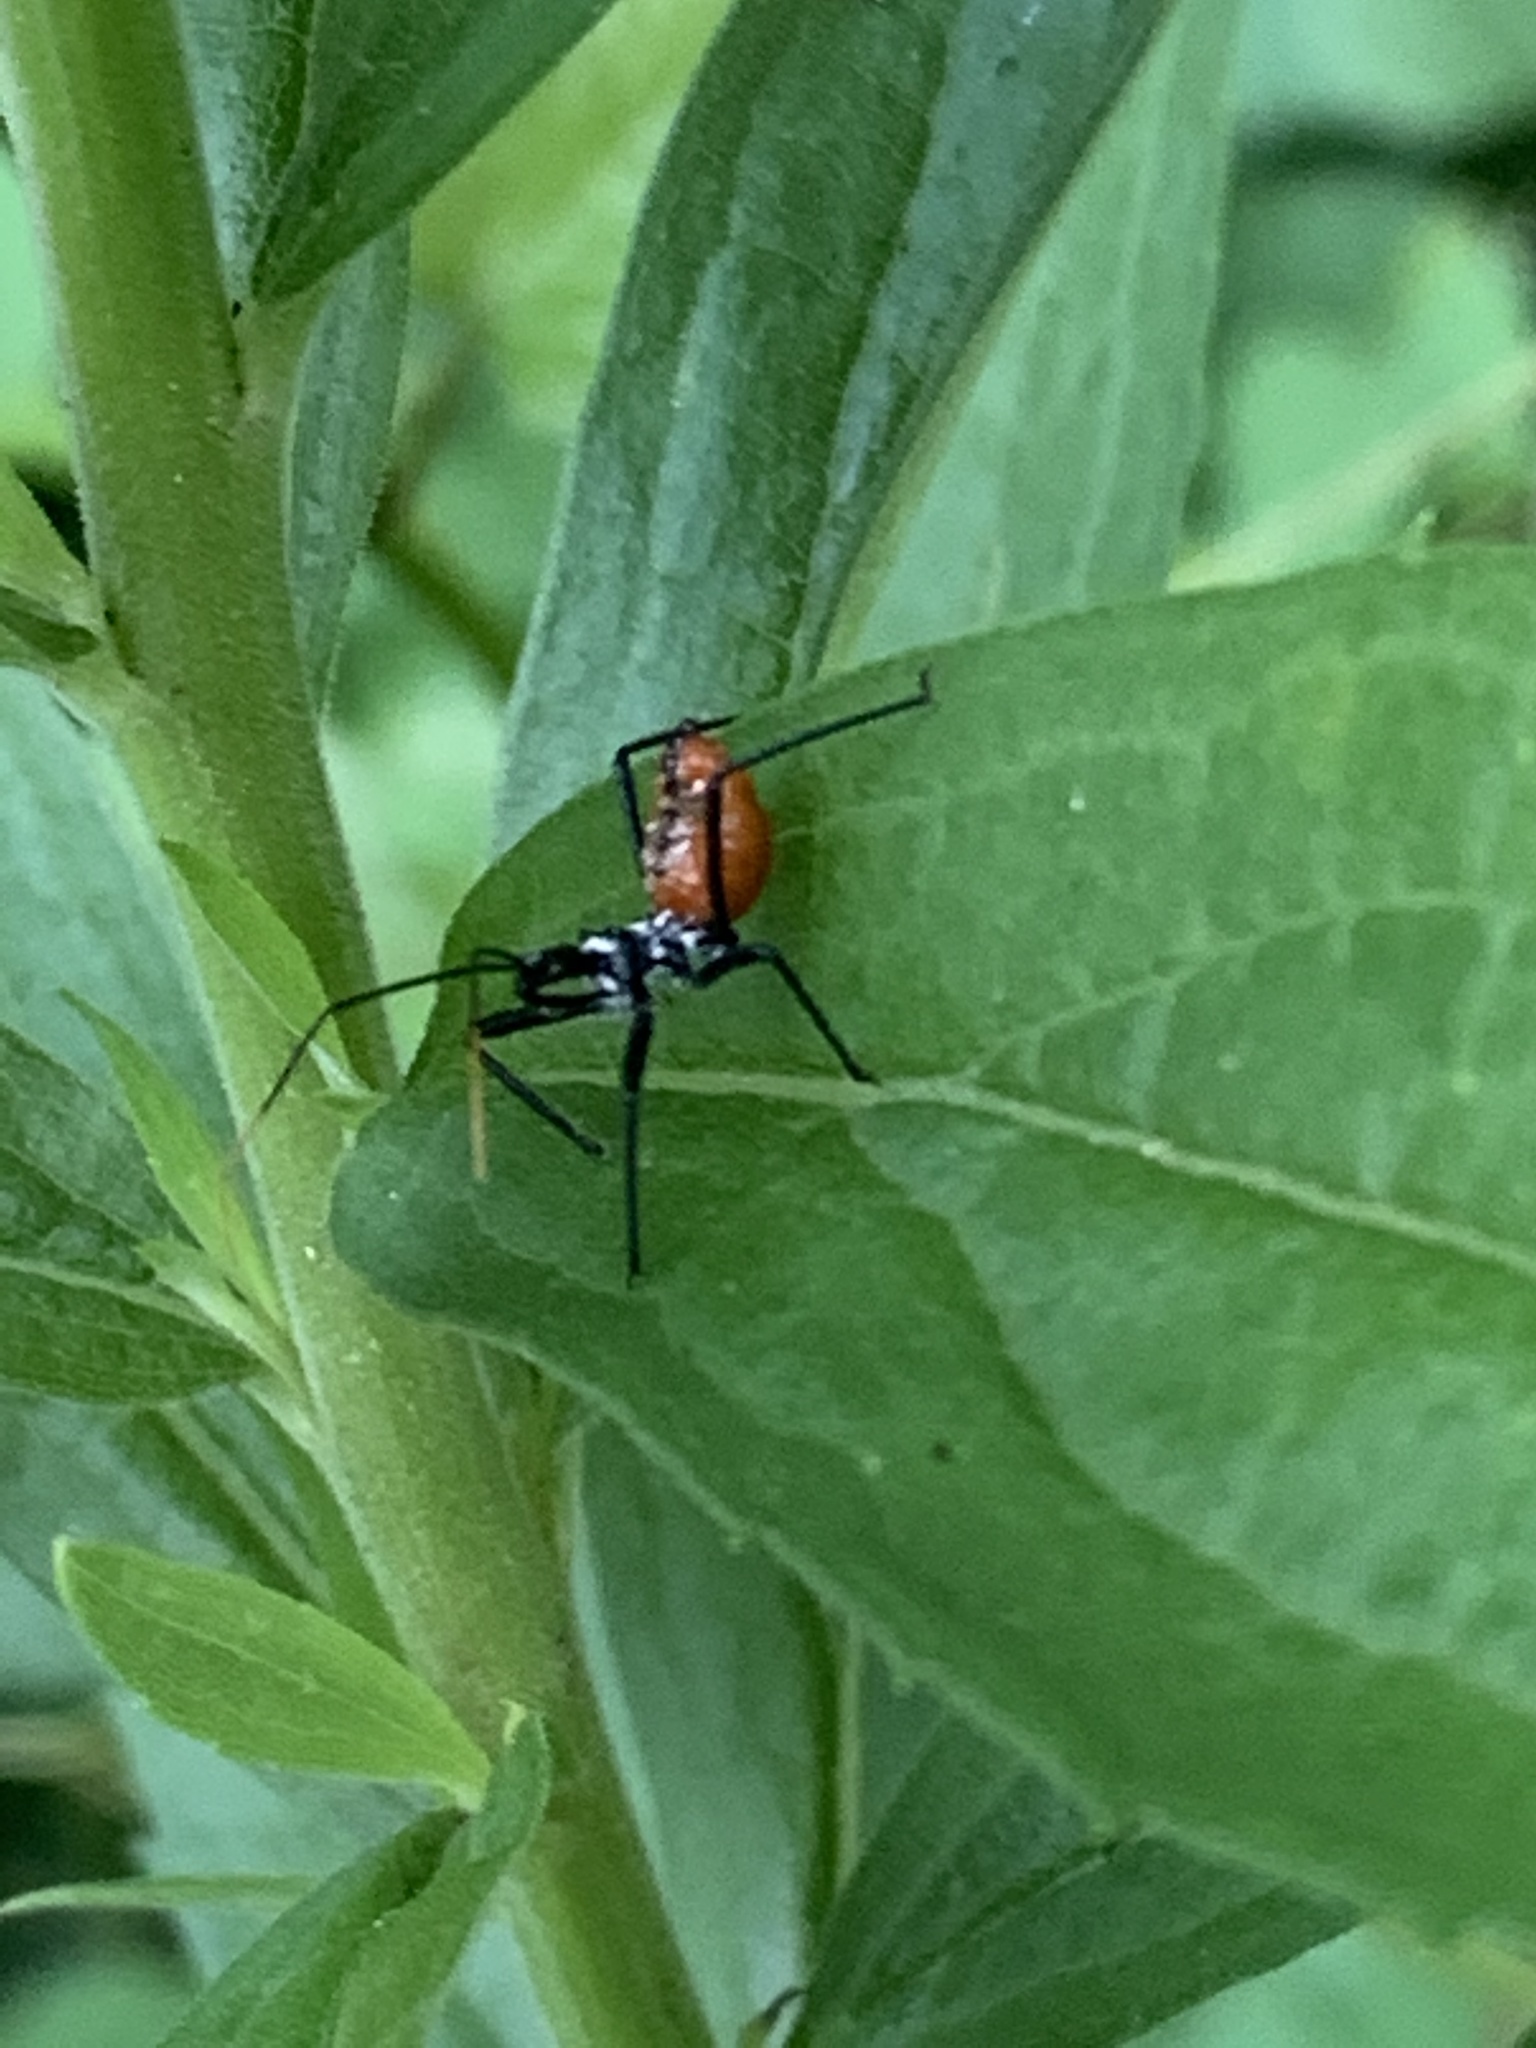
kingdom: Animalia
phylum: Arthropoda
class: Insecta
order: Hemiptera
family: Reduviidae
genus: Arilus
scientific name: Arilus cristatus
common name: North american wheel bug
